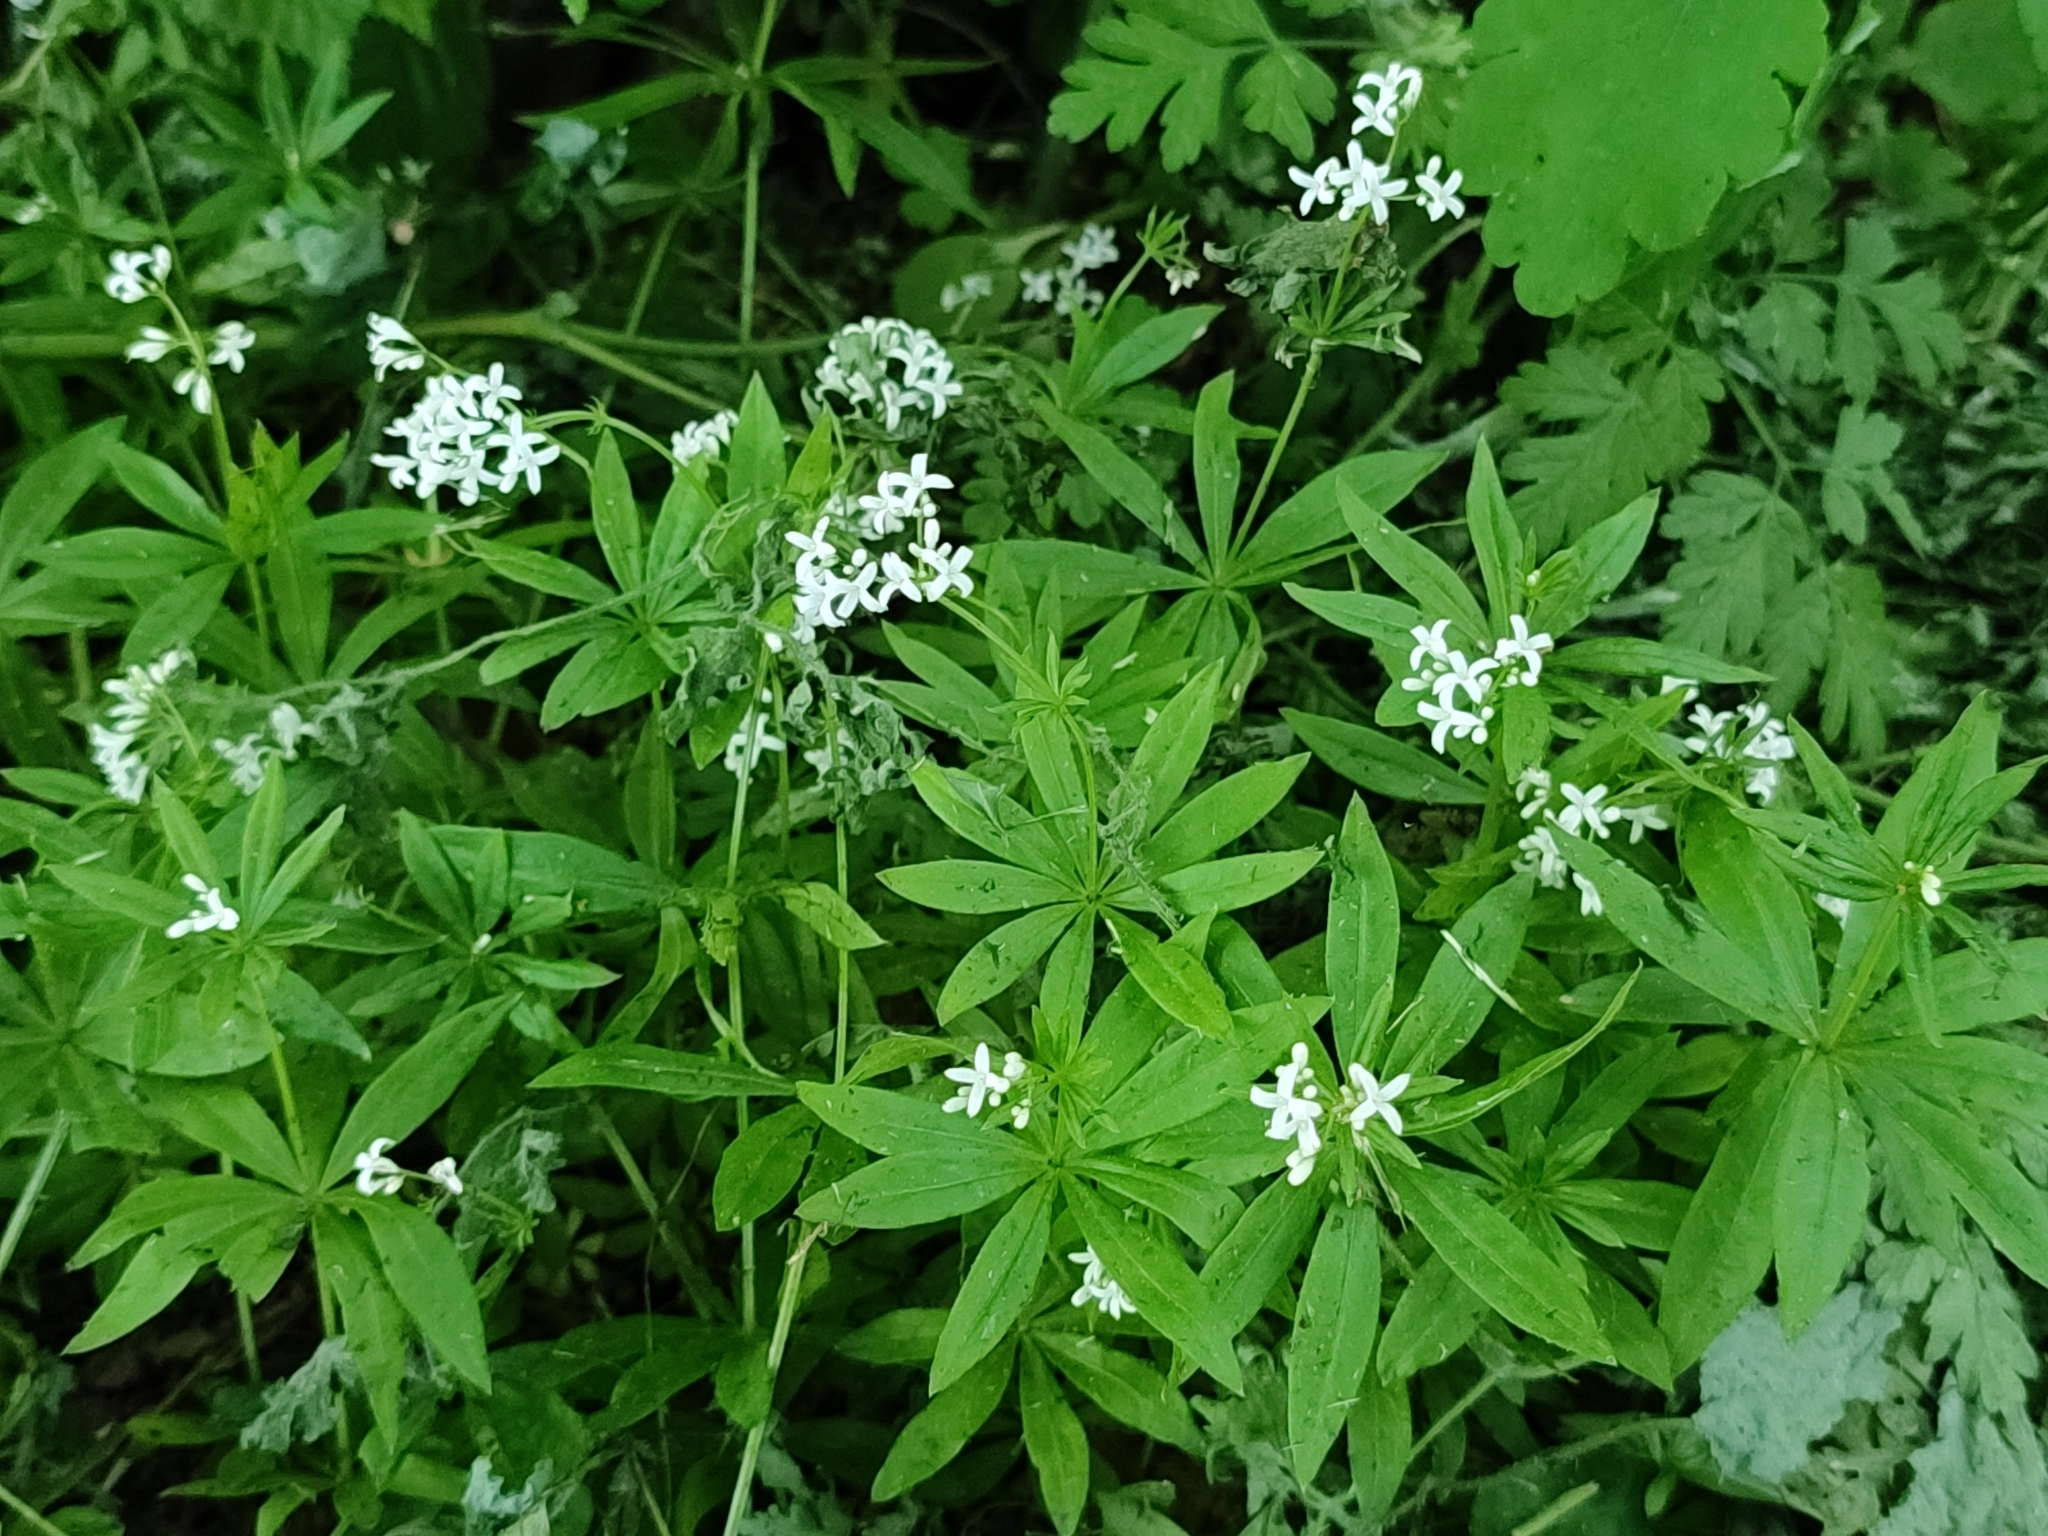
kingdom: Plantae
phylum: Tracheophyta
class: Magnoliopsida
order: Gentianales
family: Rubiaceae
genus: Galium
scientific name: Galium odoratum
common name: Sweet woodruff
